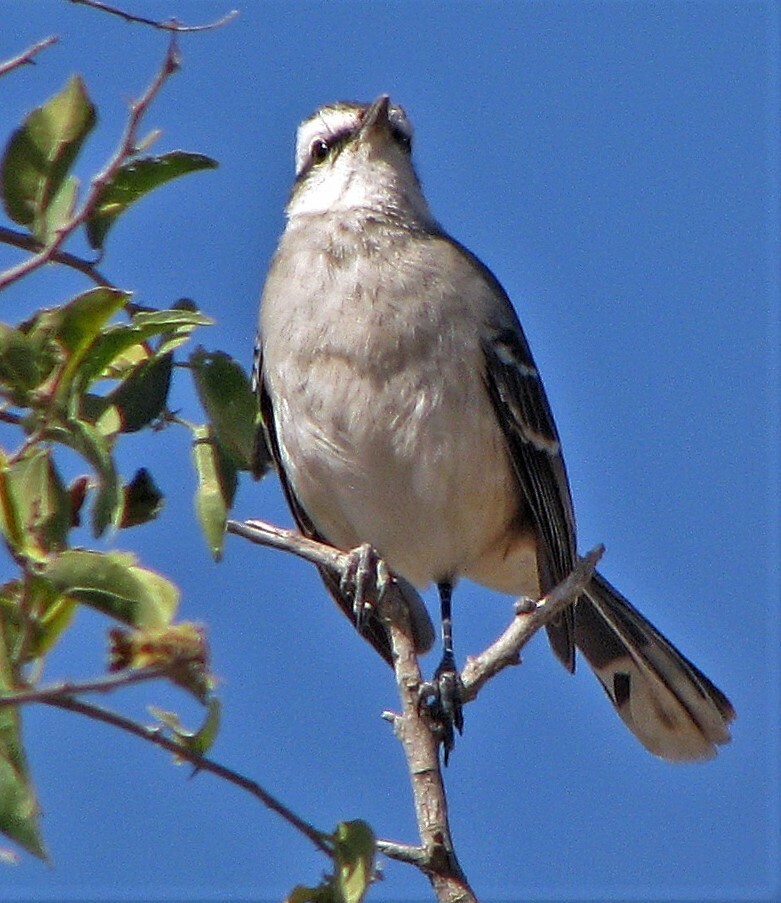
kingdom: Animalia
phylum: Chordata
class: Aves
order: Passeriformes
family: Mimidae
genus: Mimus
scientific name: Mimus saturninus
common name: Chalk-browed mockingbird
